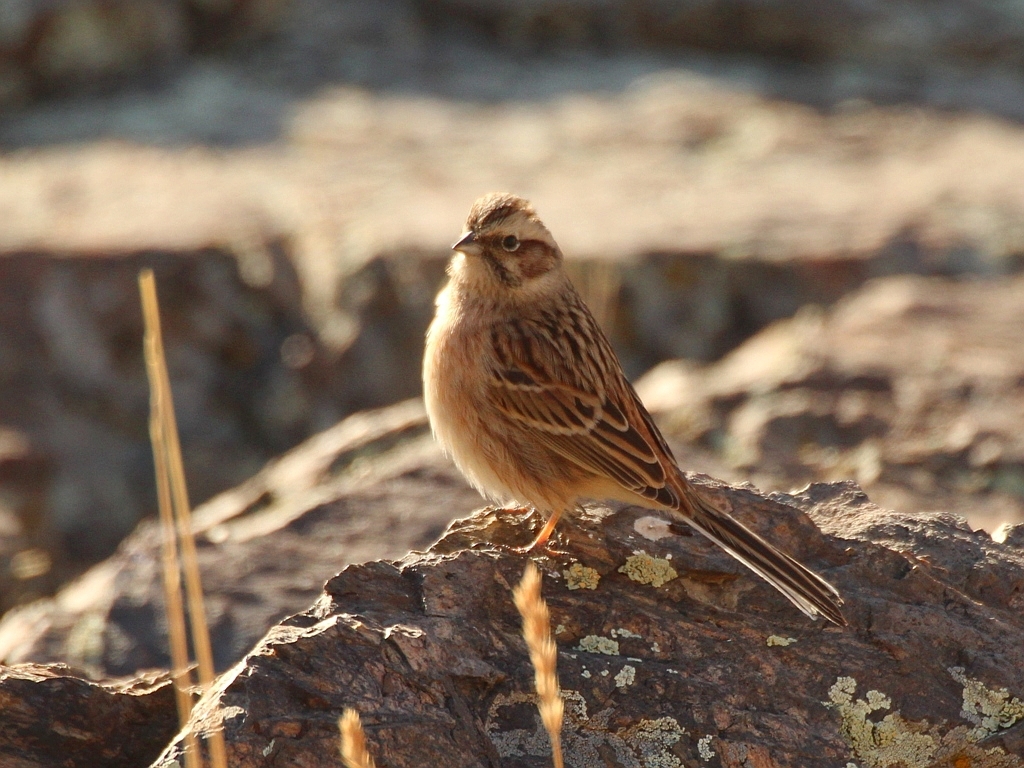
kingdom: Animalia
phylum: Chordata
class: Aves
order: Passeriformes
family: Emberizidae
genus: Emberiza
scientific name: Emberiza cioides
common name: Meadow bunting
